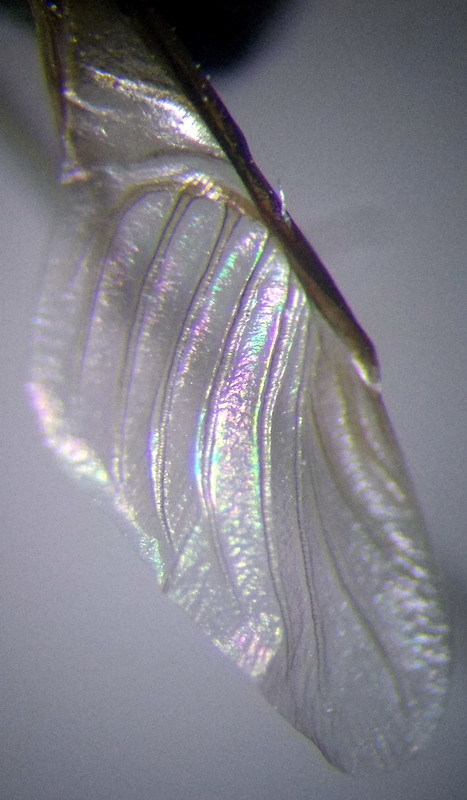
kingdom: Animalia
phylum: Arthropoda
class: Insecta
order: Hemiptera
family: Plataspidae
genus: Coptosoma
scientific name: Coptosoma scutellatum
